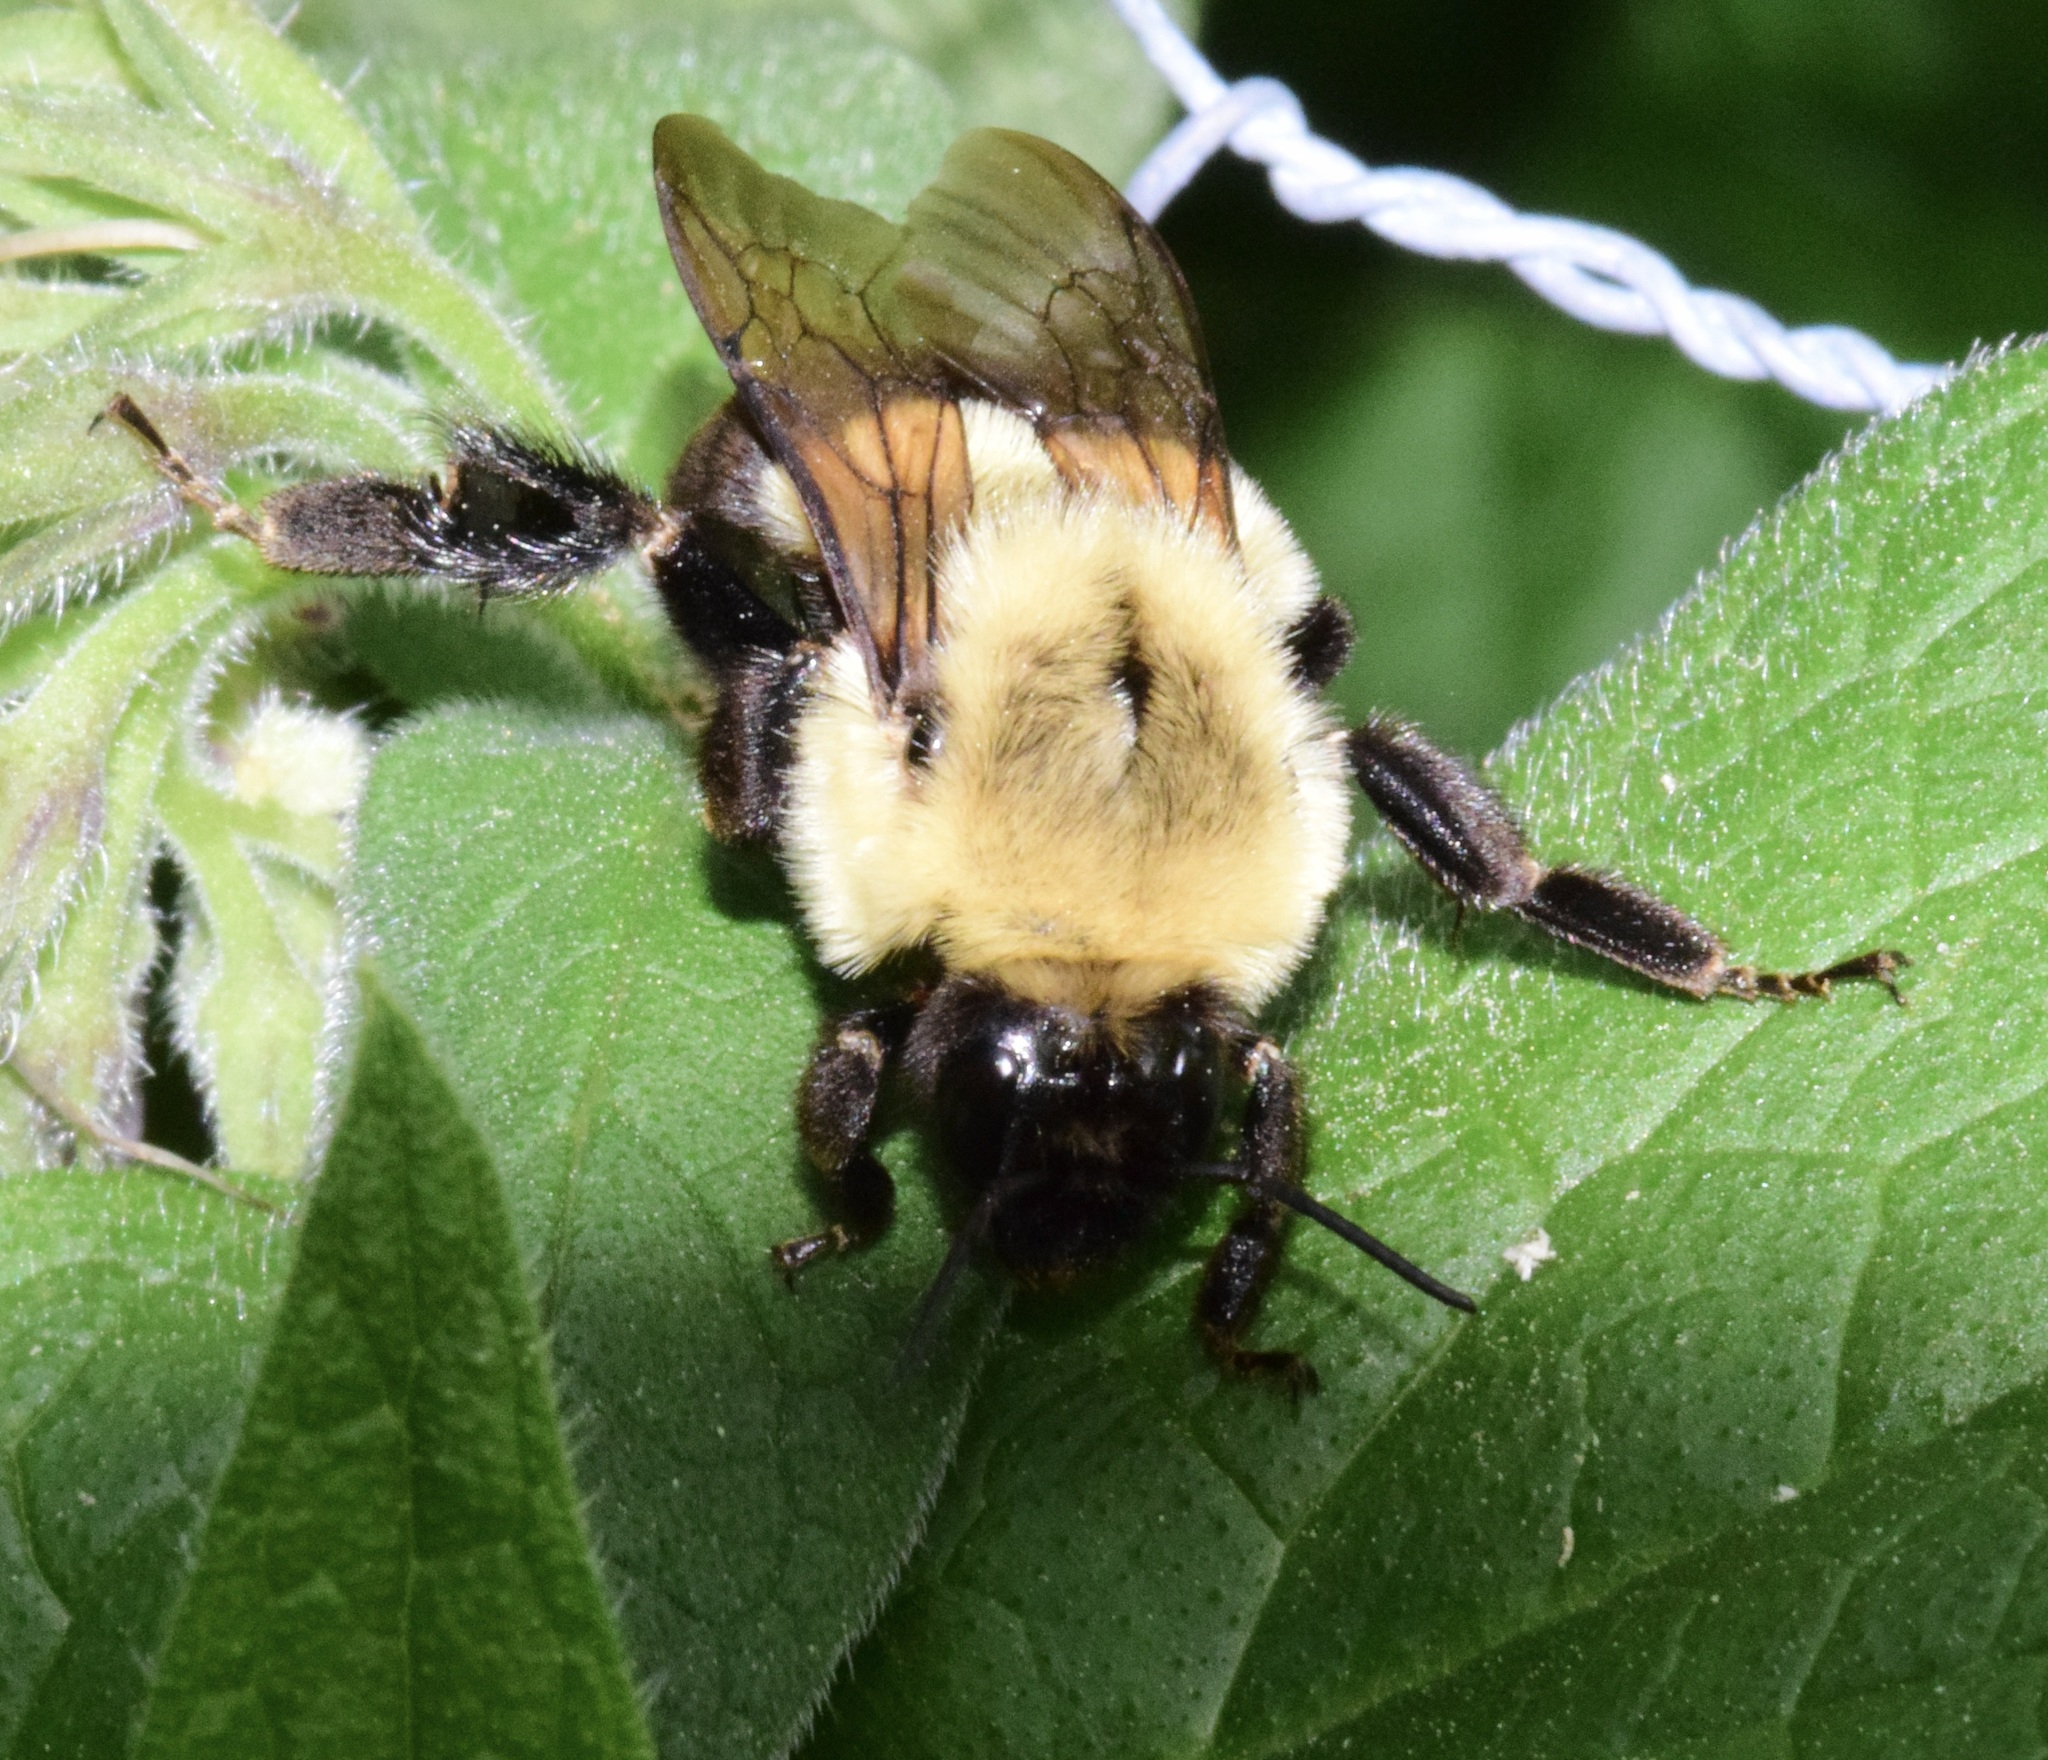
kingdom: Animalia
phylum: Arthropoda
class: Insecta
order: Hymenoptera
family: Apidae
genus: Bombus
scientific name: Bombus impatiens
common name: Common eastern bumble bee
